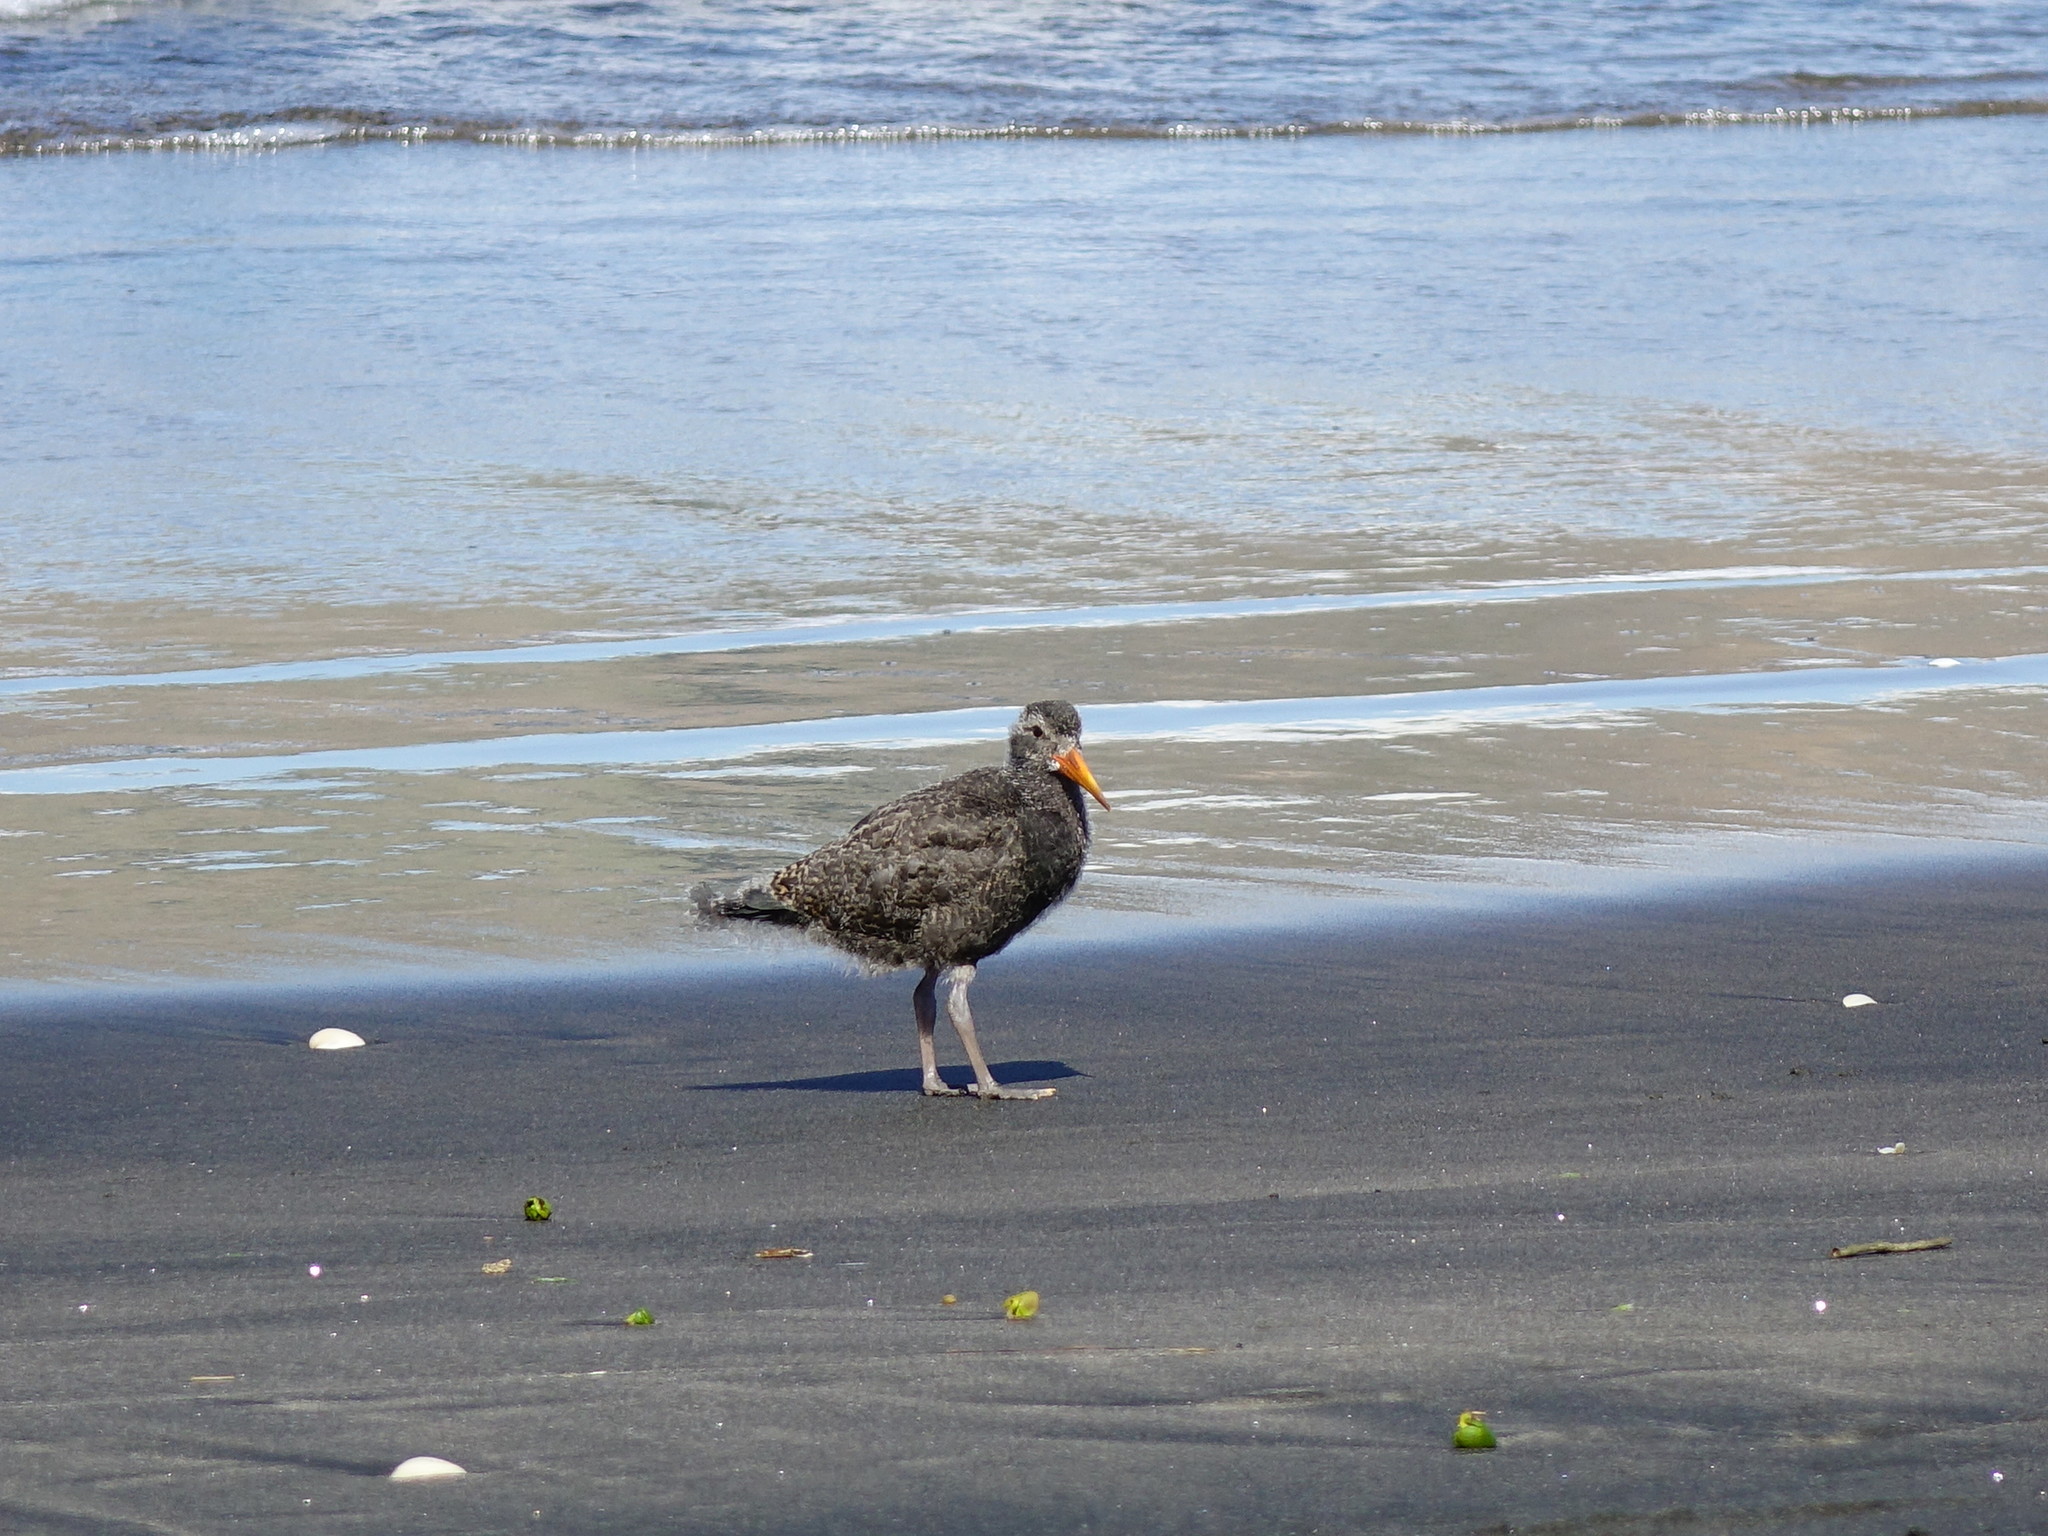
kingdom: Animalia
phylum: Chordata
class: Aves
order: Charadriiformes
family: Haematopodidae
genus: Haematopus
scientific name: Haematopus unicolor
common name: Variable oystercatcher
